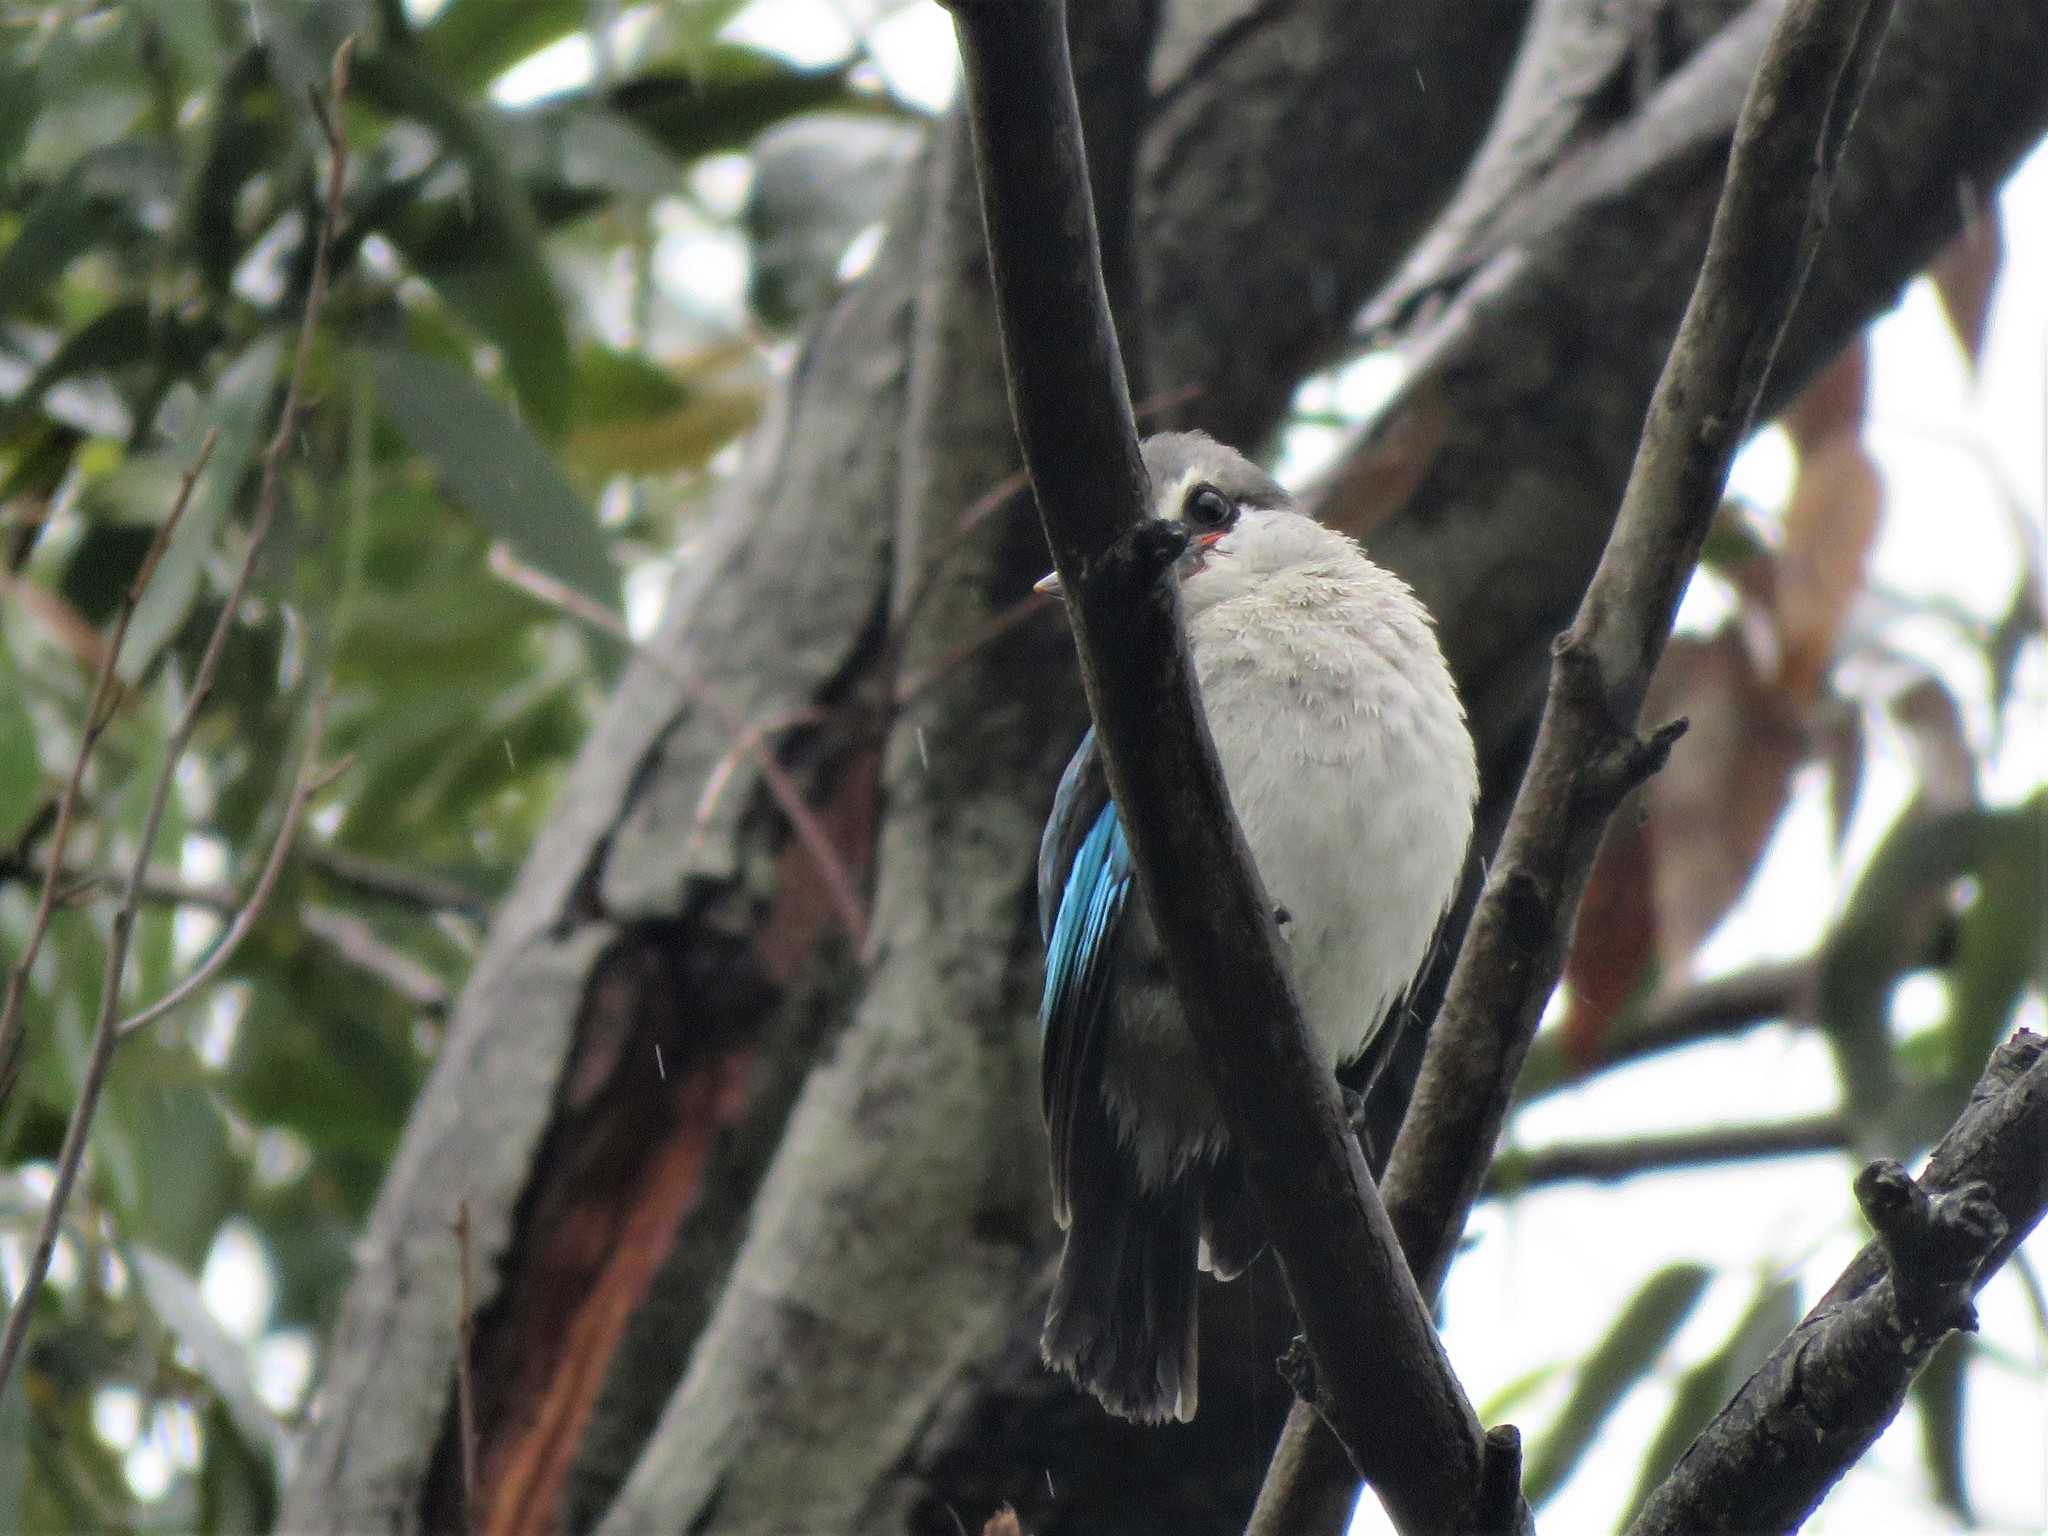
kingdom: Animalia
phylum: Chordata
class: Aves
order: Coraciiformes
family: Alcedinidae
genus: Halcyon
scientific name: Halcyon senegalensis
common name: Woodland kingfisher
